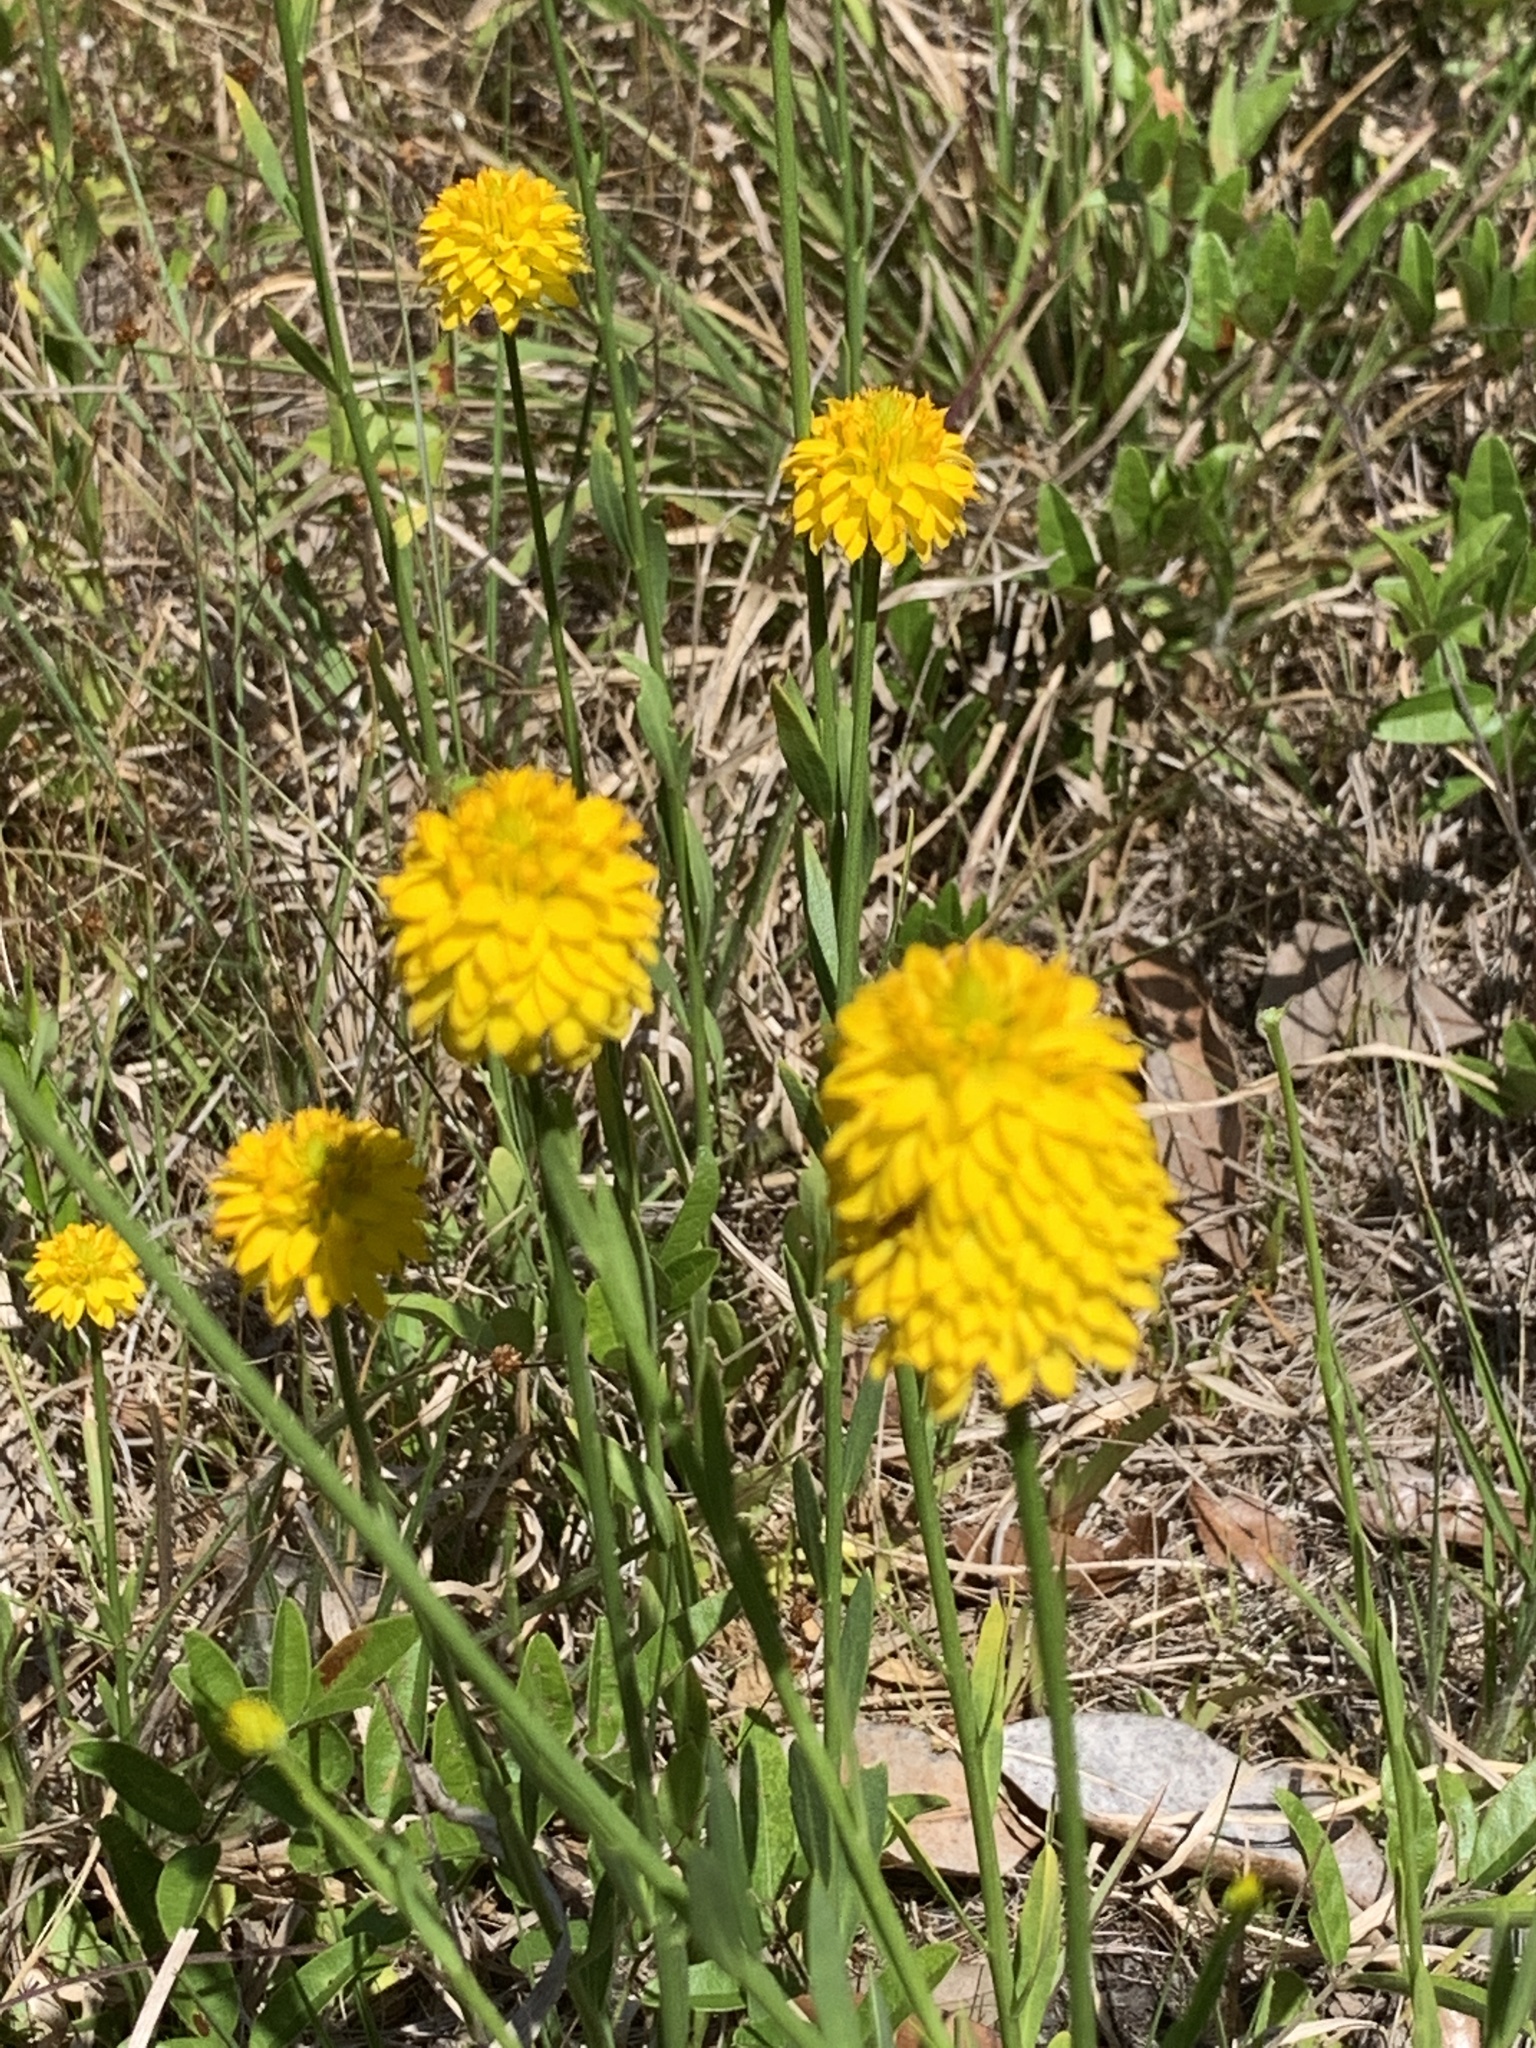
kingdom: Plantae
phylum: Tracheophyta
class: Magnoliopsida
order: Fabales
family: Polygalaceae
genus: Polygala
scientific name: Polygala rugelii
